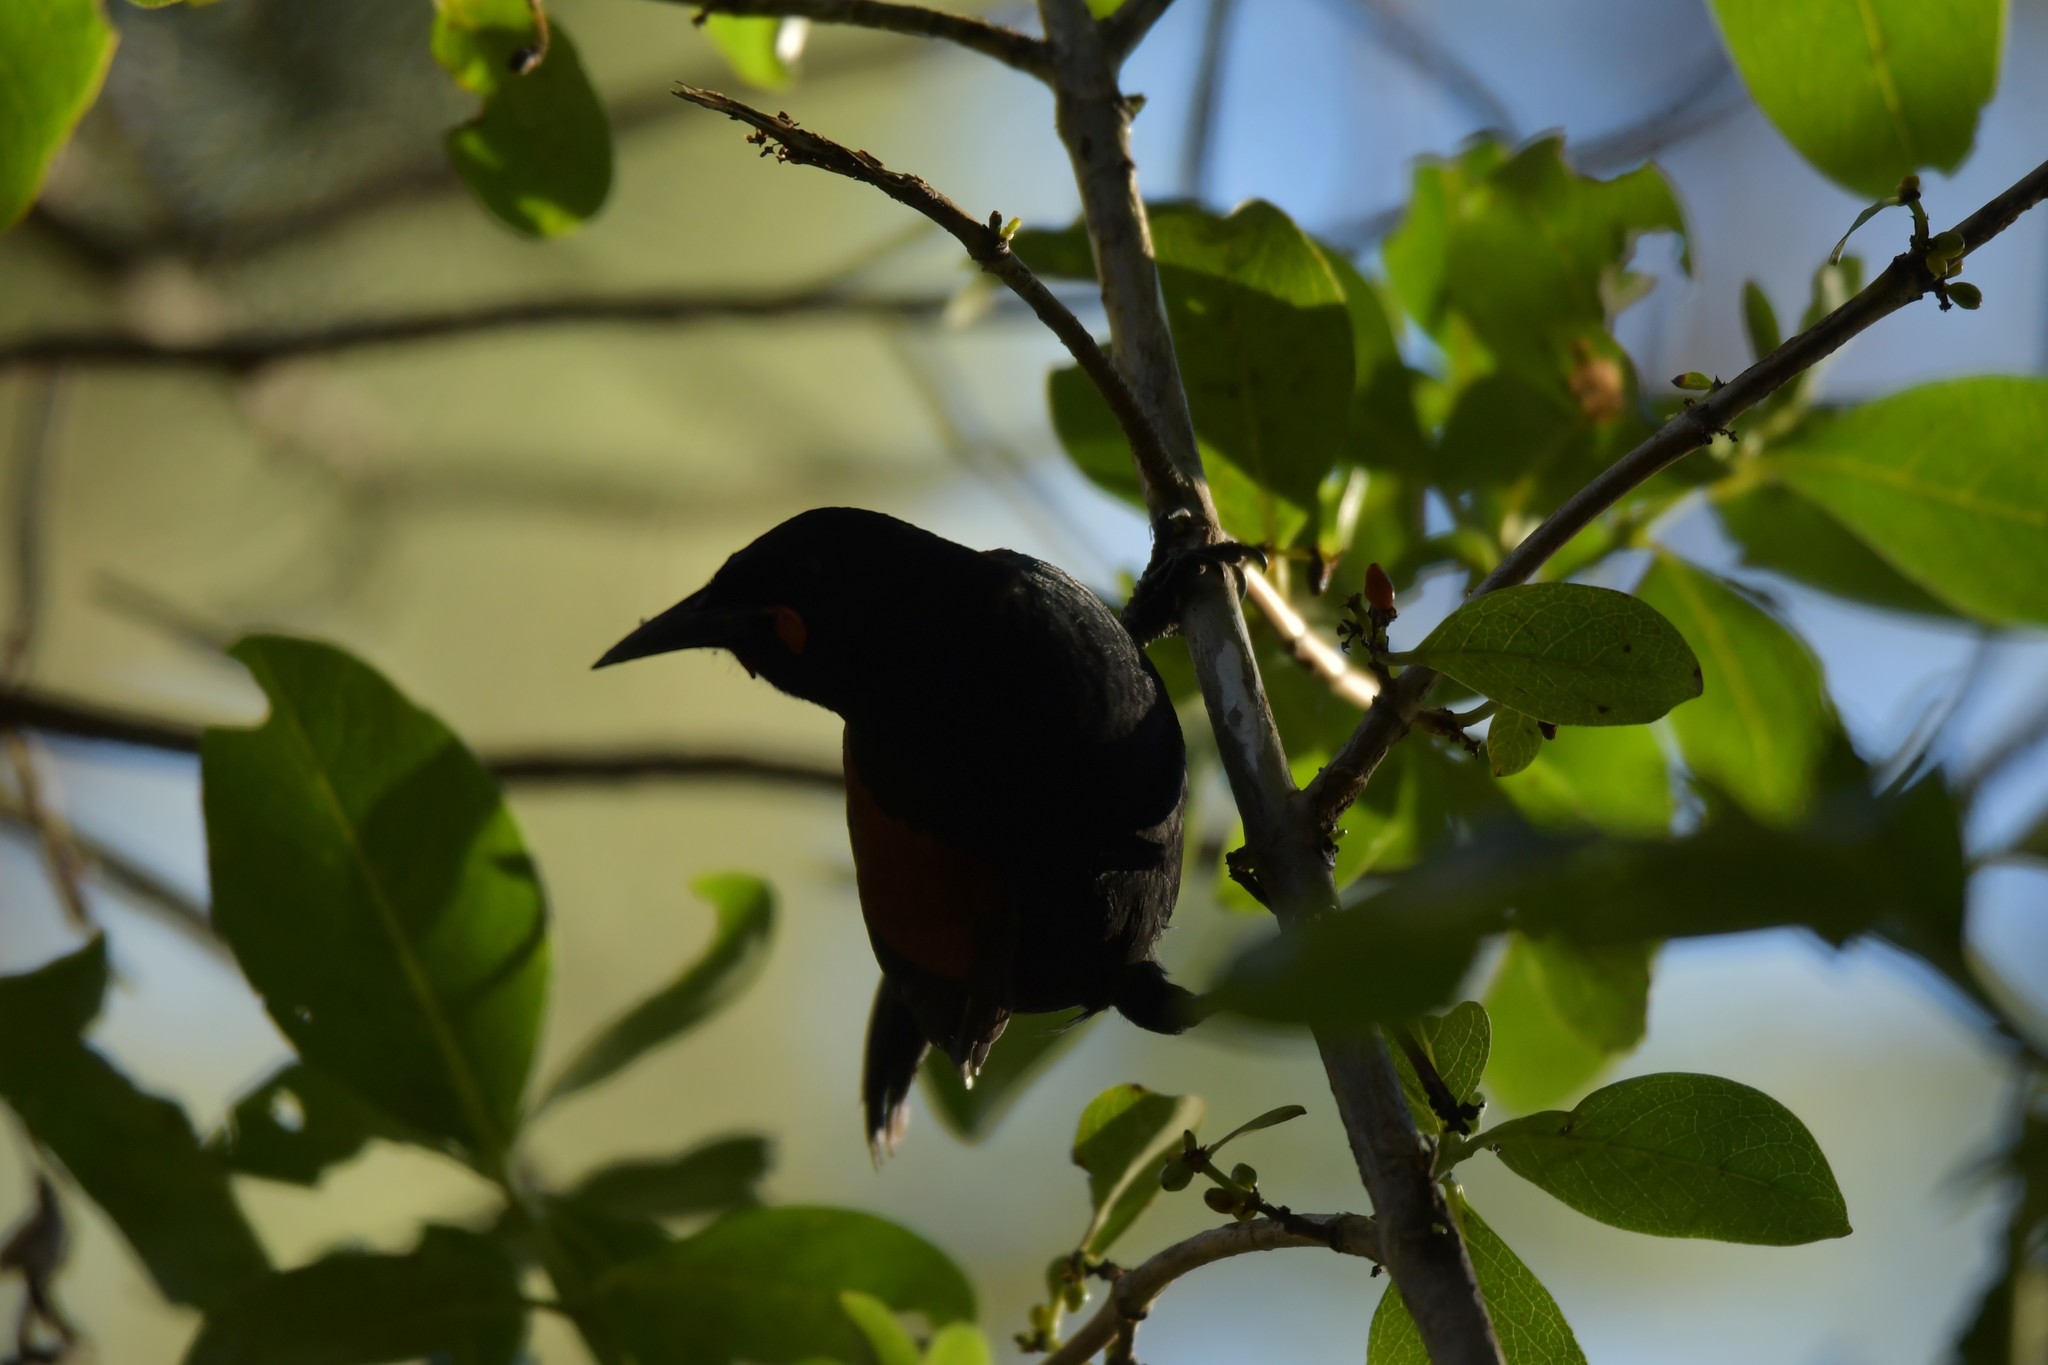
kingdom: Animalia
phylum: Chordata
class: Aves
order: Passeriformes
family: Callaeatidae
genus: Philesturnus
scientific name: Philesturnus carunculatus
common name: South island saddleback
